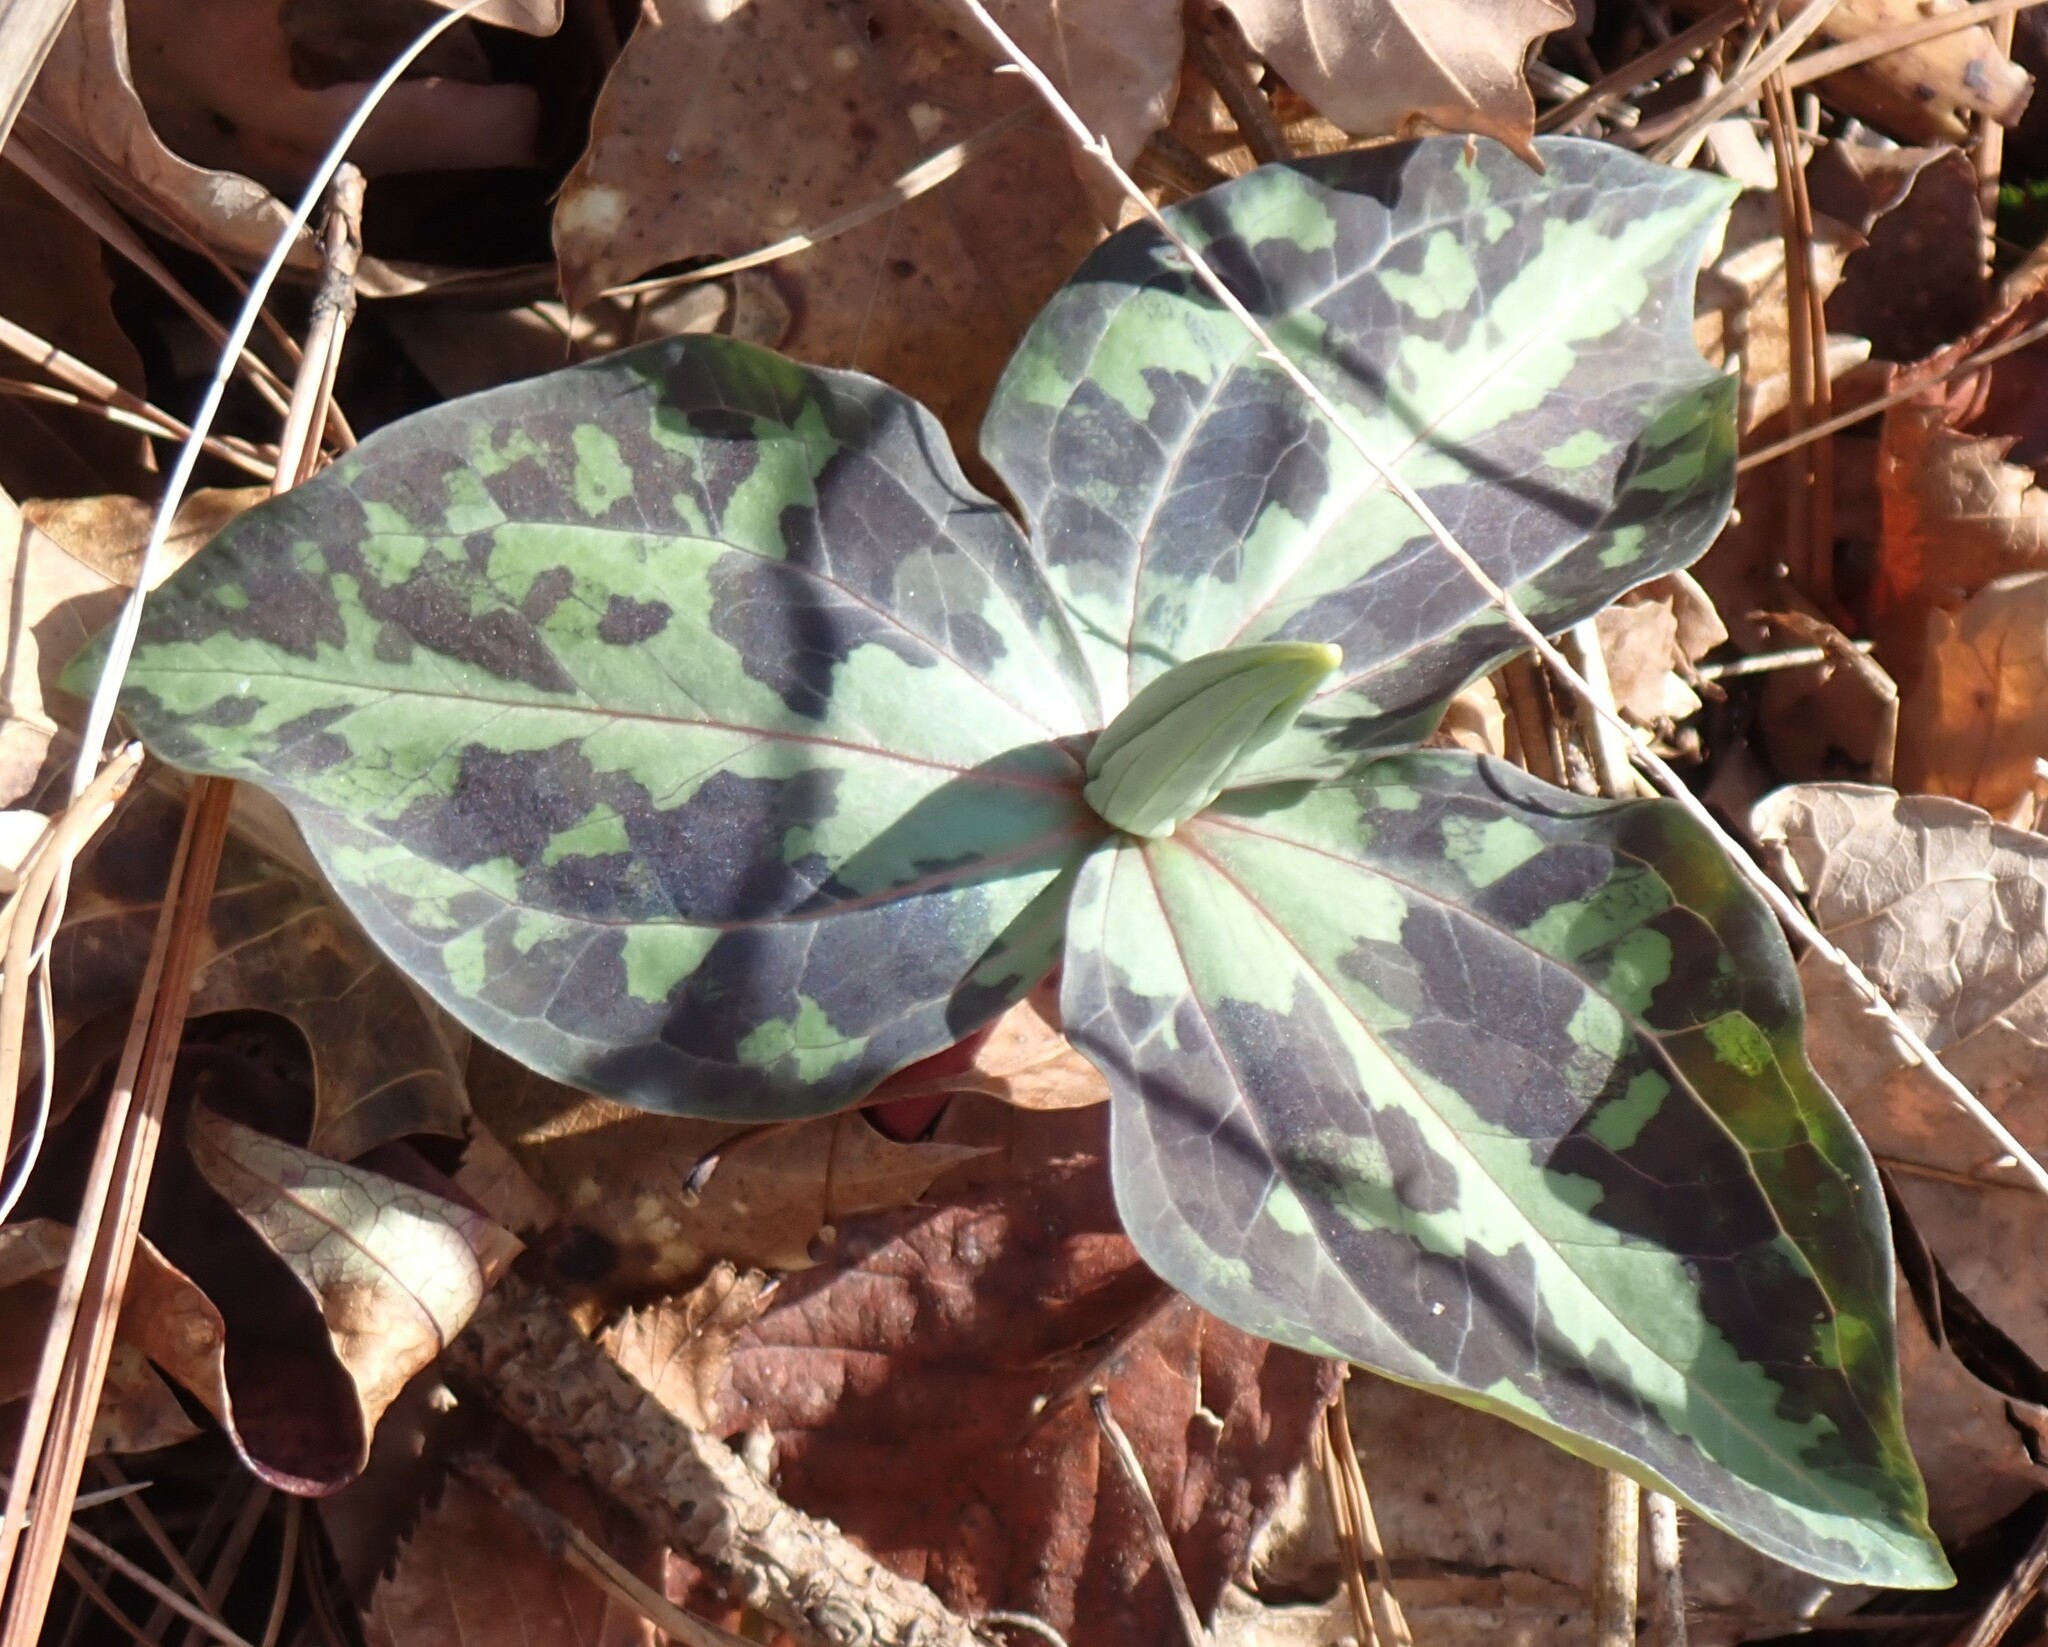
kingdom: Plantae
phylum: Tracheophyta
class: Liliopsida
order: Liliales
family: Melanthiaceae
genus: Trillium
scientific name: Trillium underwoodii
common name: Longbract wakerobin
